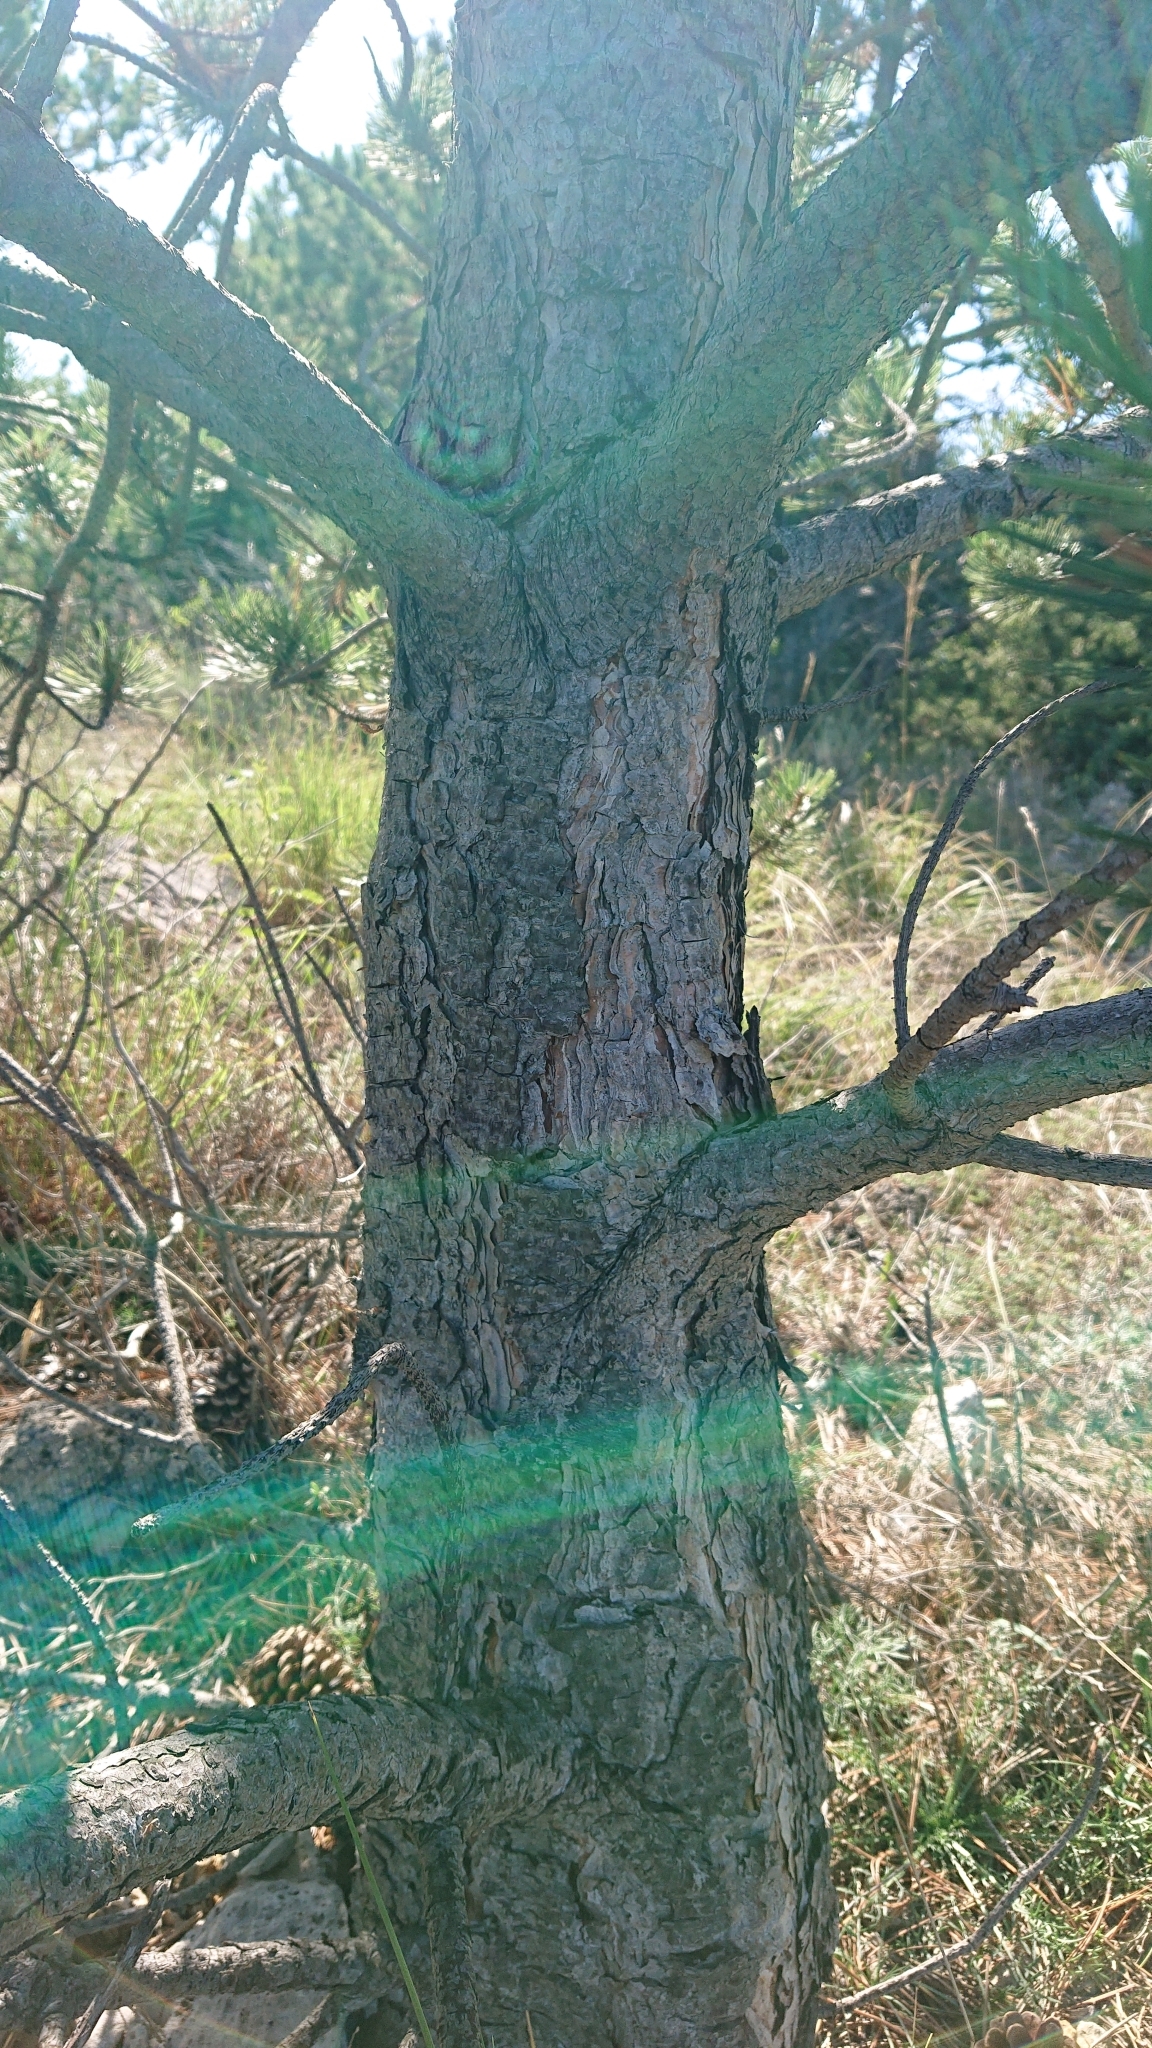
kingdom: Plantae
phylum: Tracheophyta
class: Pinopsida
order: Pinales
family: Pinaceae
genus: Pinus
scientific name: Pinus nigra
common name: Austrian pine
